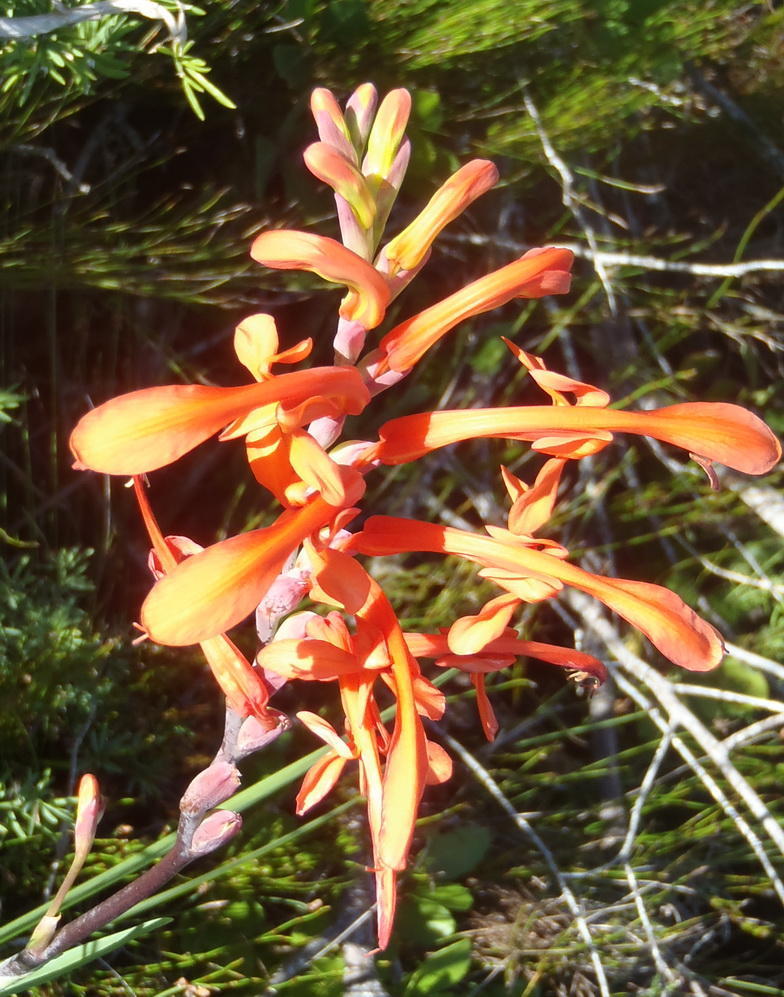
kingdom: Plantae
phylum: Tracheophyta
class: Liliopsida
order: Asparagales
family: Iridaceae
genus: Chasmanthe
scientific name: Chasmanthe aethiopica
